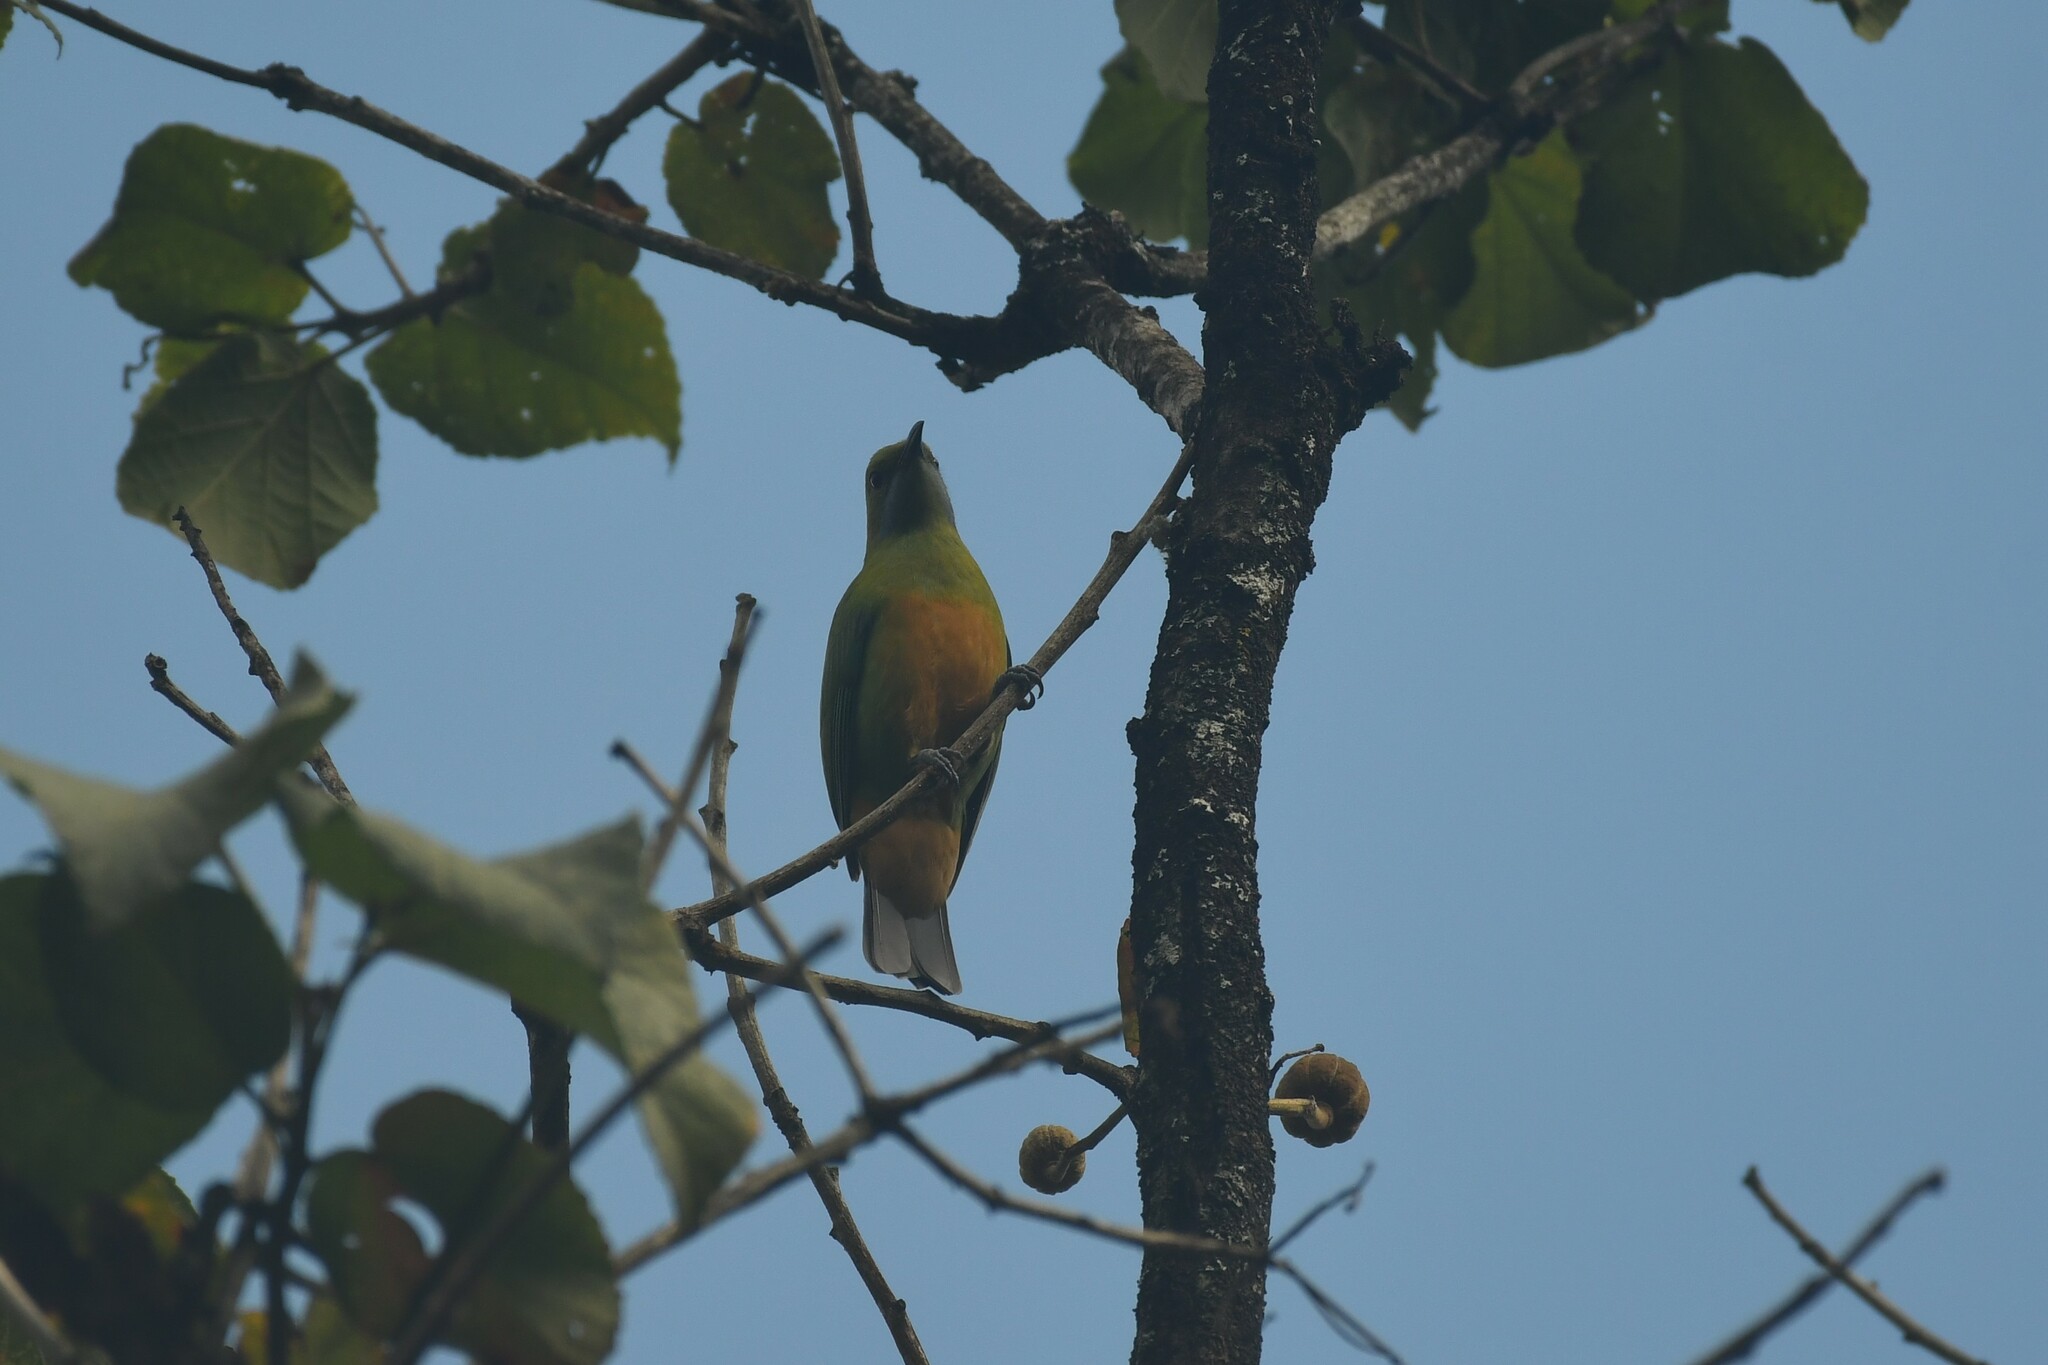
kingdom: Animalia
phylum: Chordata
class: Aves
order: Passeriformes
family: Chloropseidae
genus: Chloropsis
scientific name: Chloropsis hardwickii
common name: Orange-bellied leafbird
